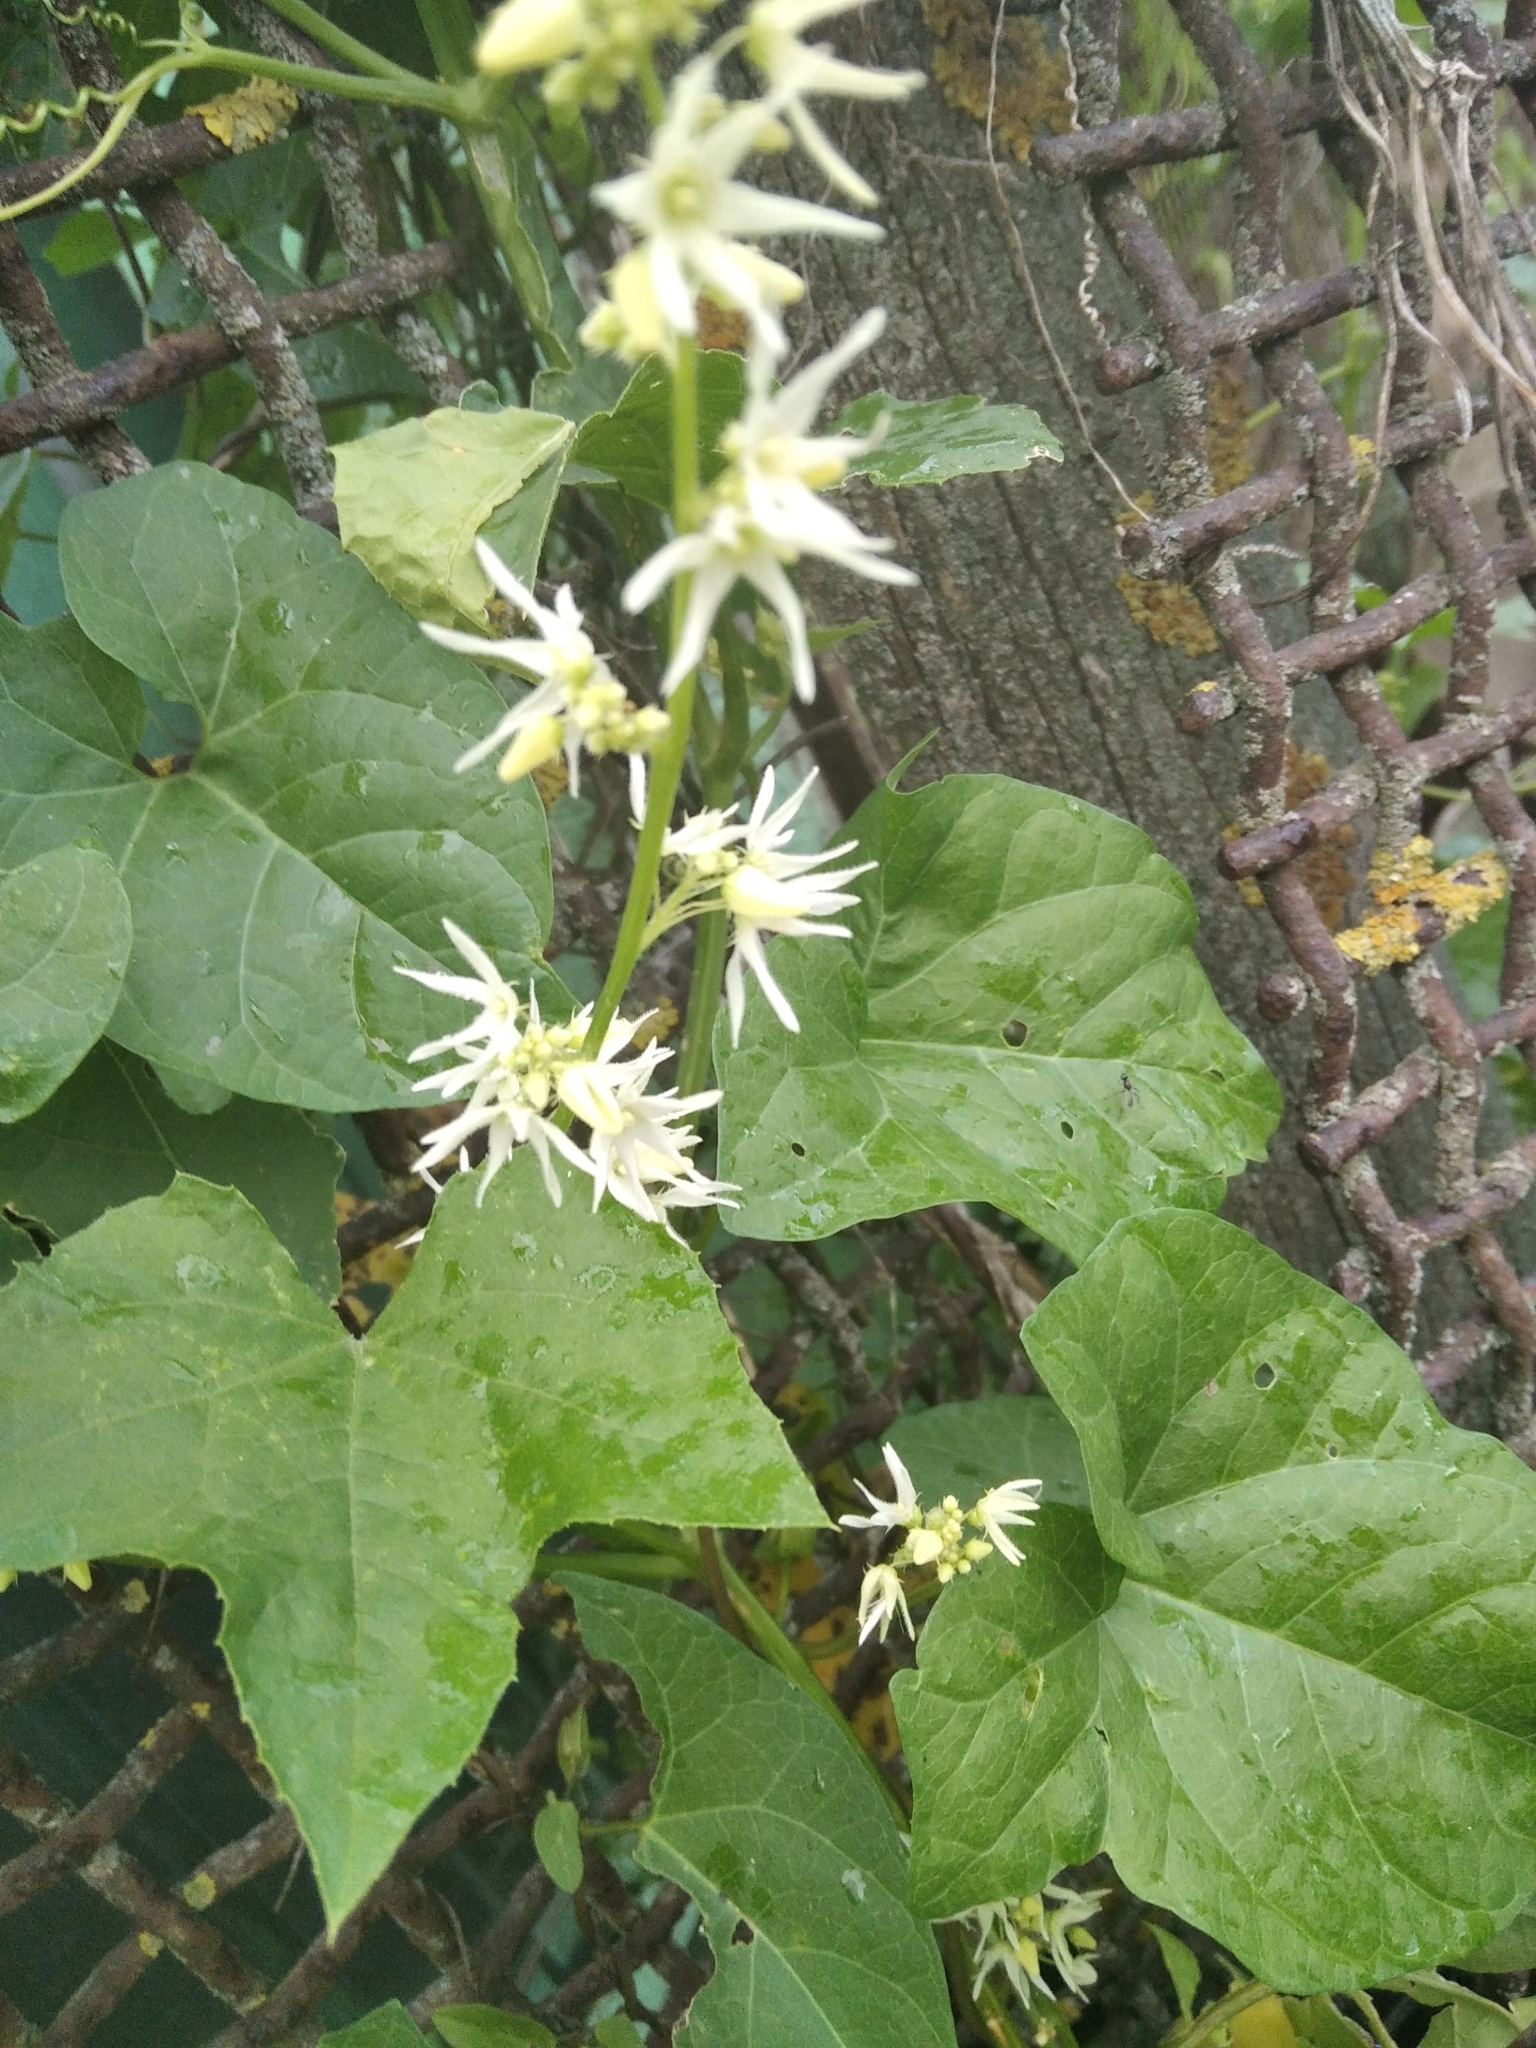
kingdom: Plantae
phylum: Tracheophyta
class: Magnoliopsida
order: Cucurbitales
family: Cucurbitaceae
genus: Echinocystis
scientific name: Echinocystis lobata
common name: Wild cucumber
